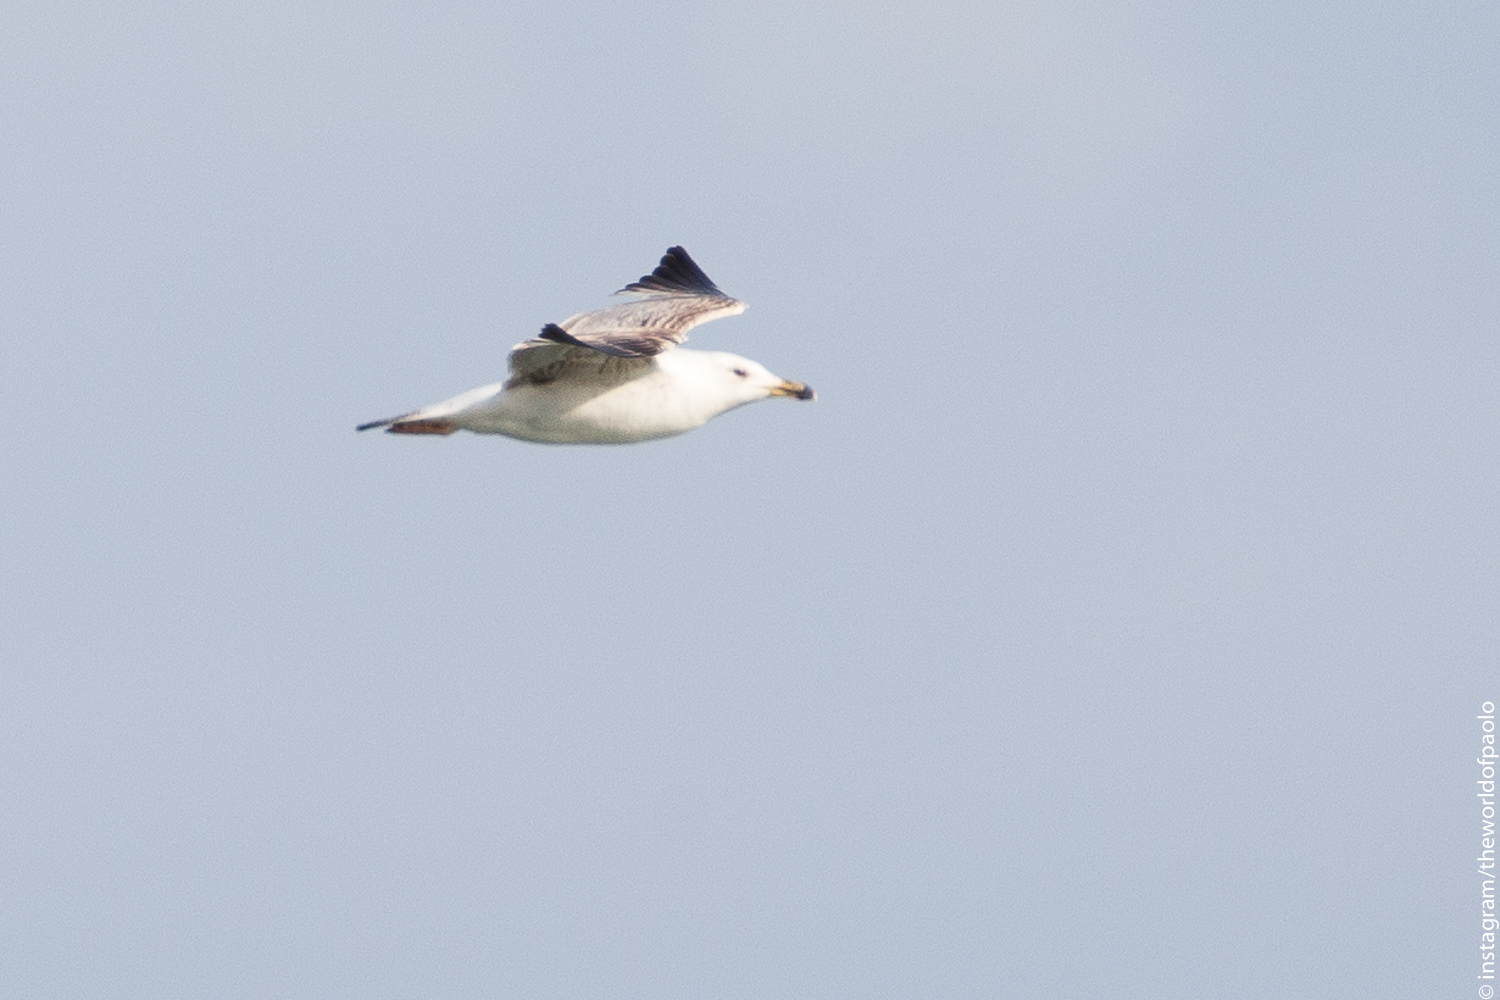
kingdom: Animalia
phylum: Chordata
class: Aves
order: Charadriiformes
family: Laridae
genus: Larus
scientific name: Larus michahellis
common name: Yellow-legged gull
